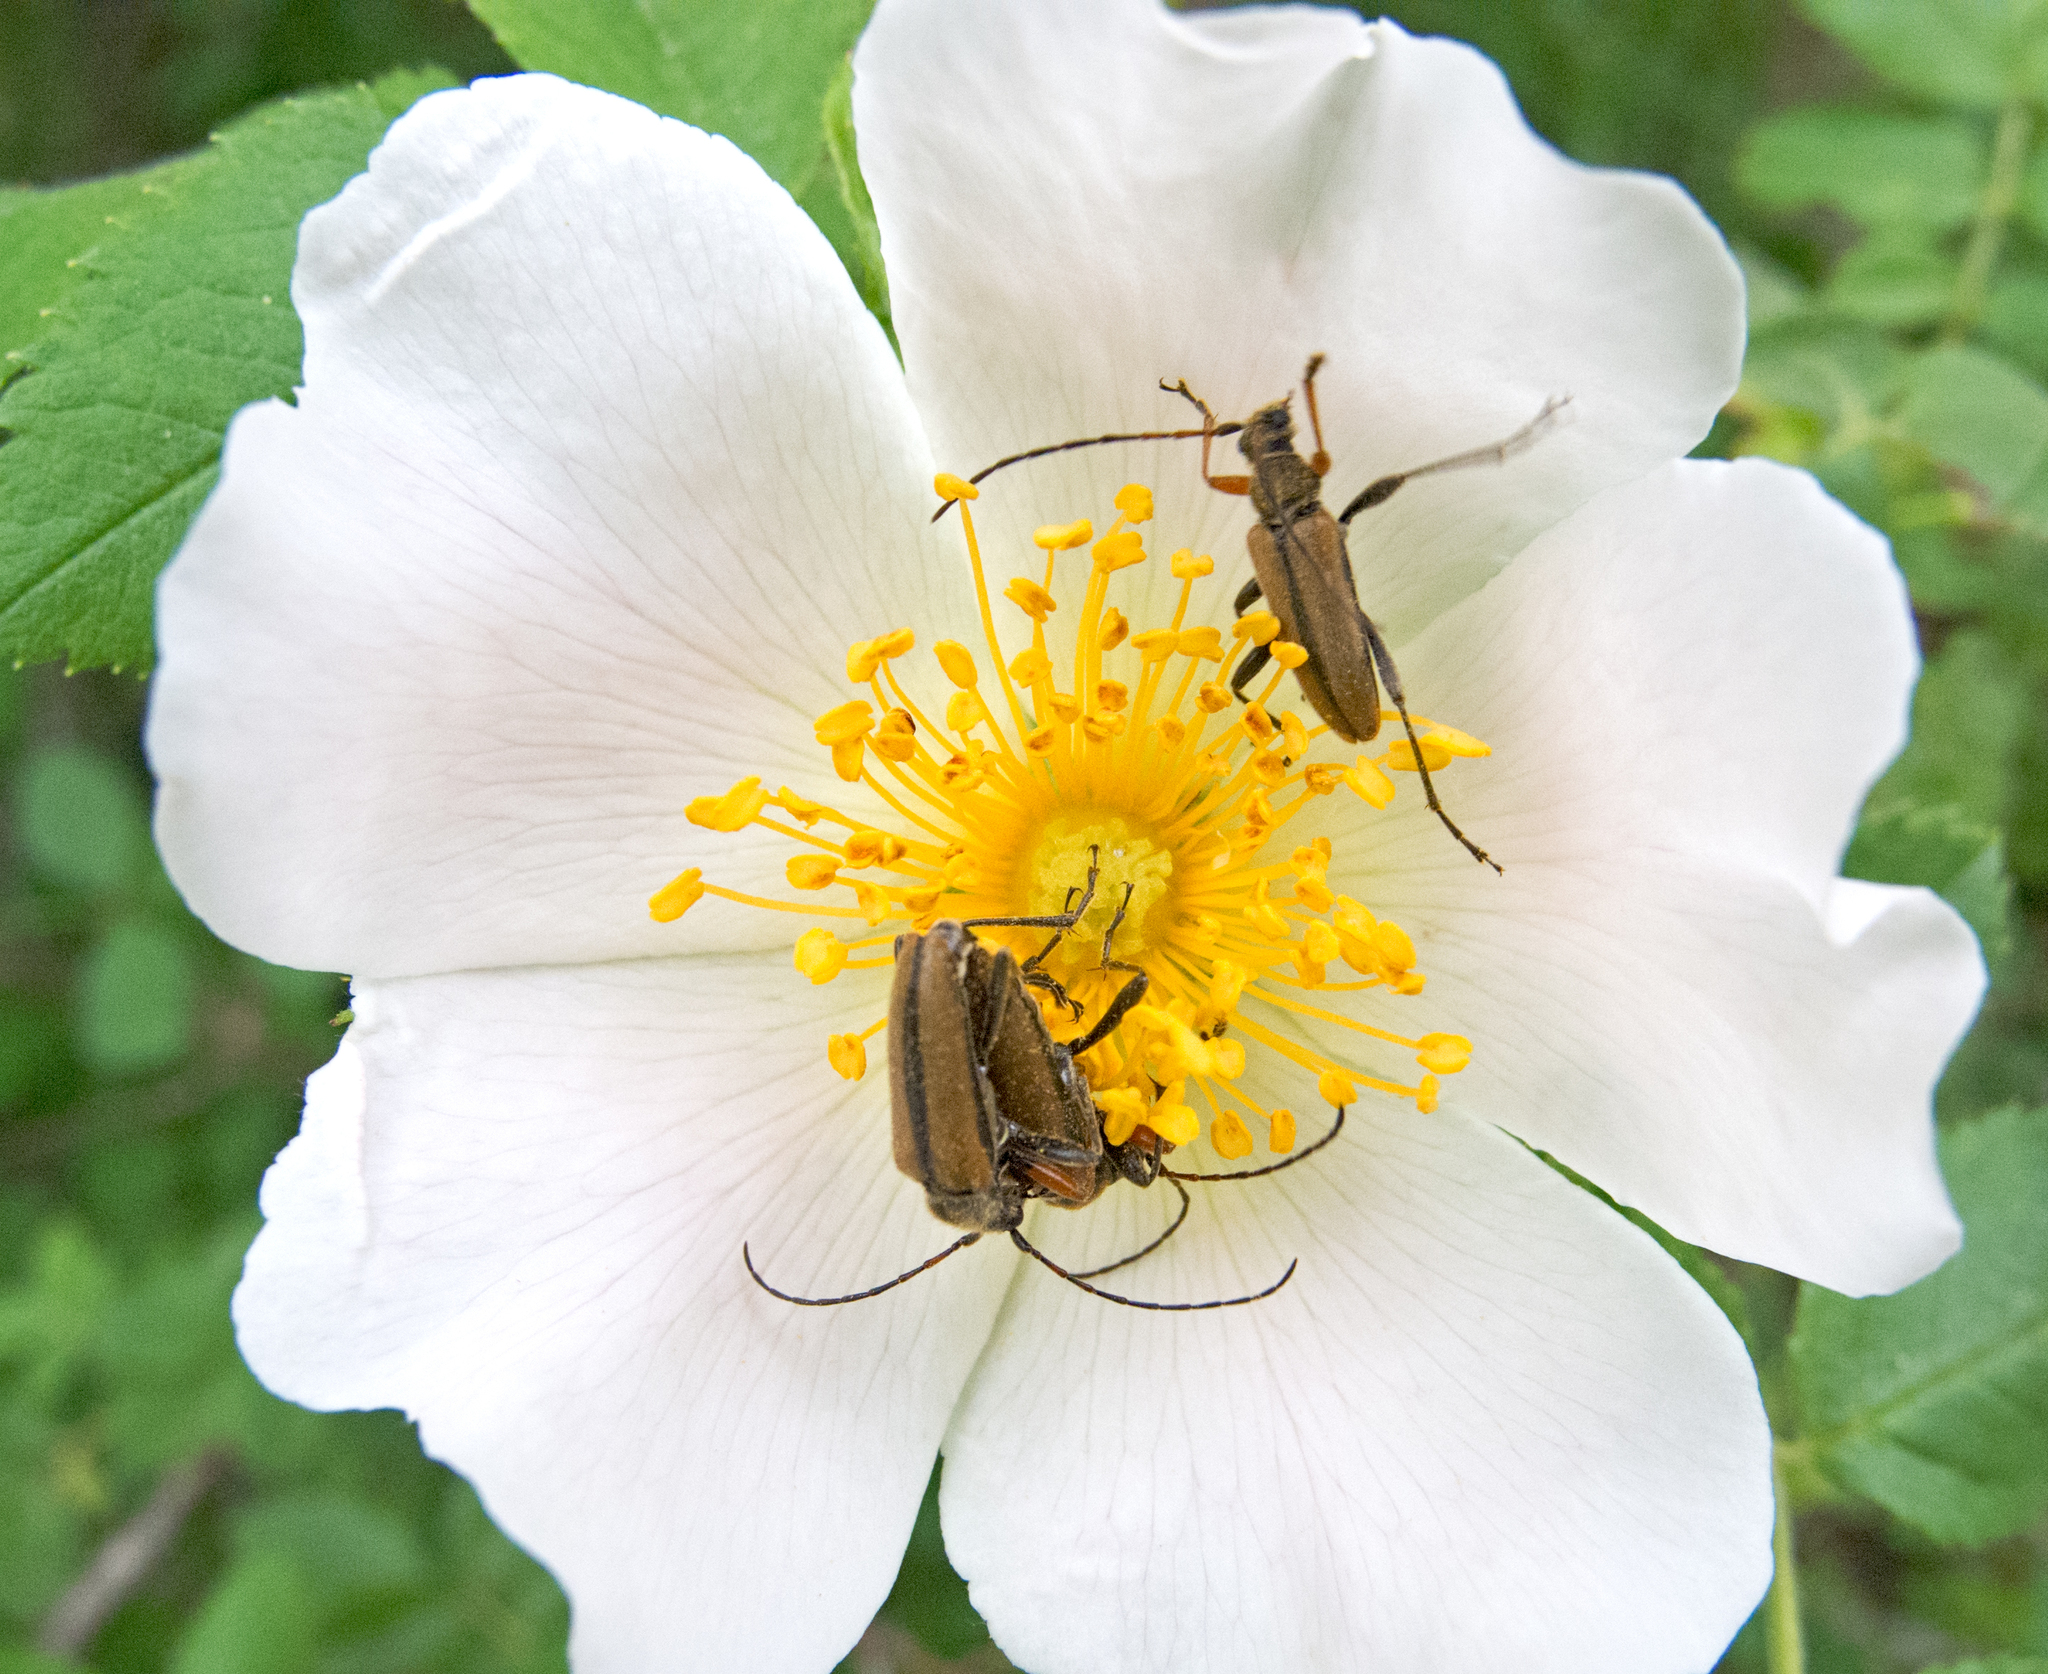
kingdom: Animalia
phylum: Arthropoda
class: Insecta
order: Coleoptera
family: Cerambycidae
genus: Cortodera
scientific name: Cortodera flavimana
